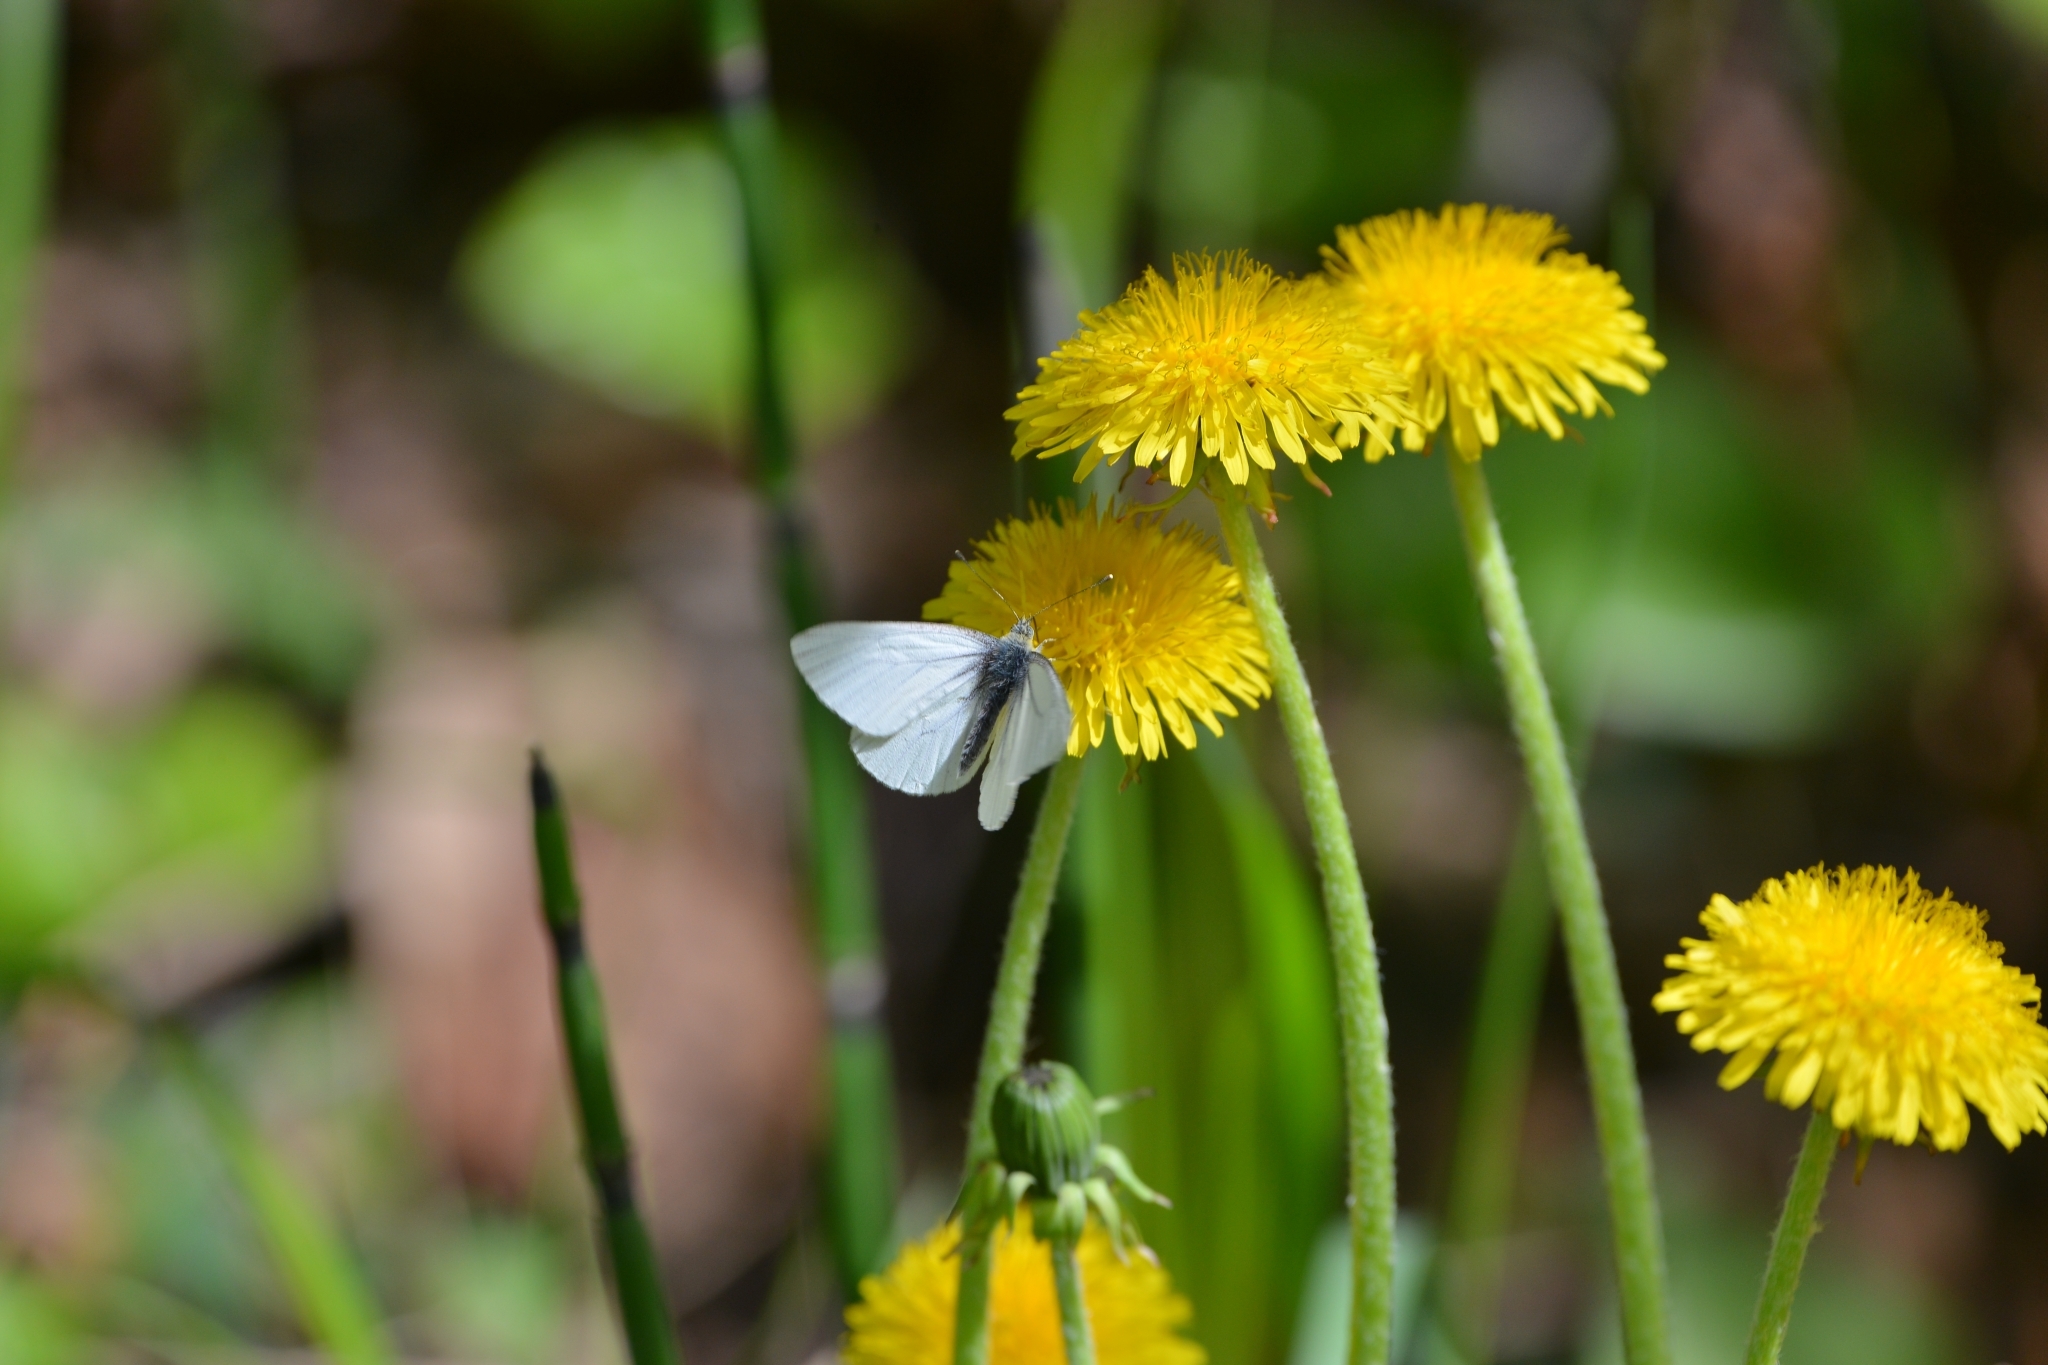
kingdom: Animalia
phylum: Arthropoda
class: Insecta
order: Lepidoptera
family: Pieridae
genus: Pieris
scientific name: Pieris napi
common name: Green-veined white
